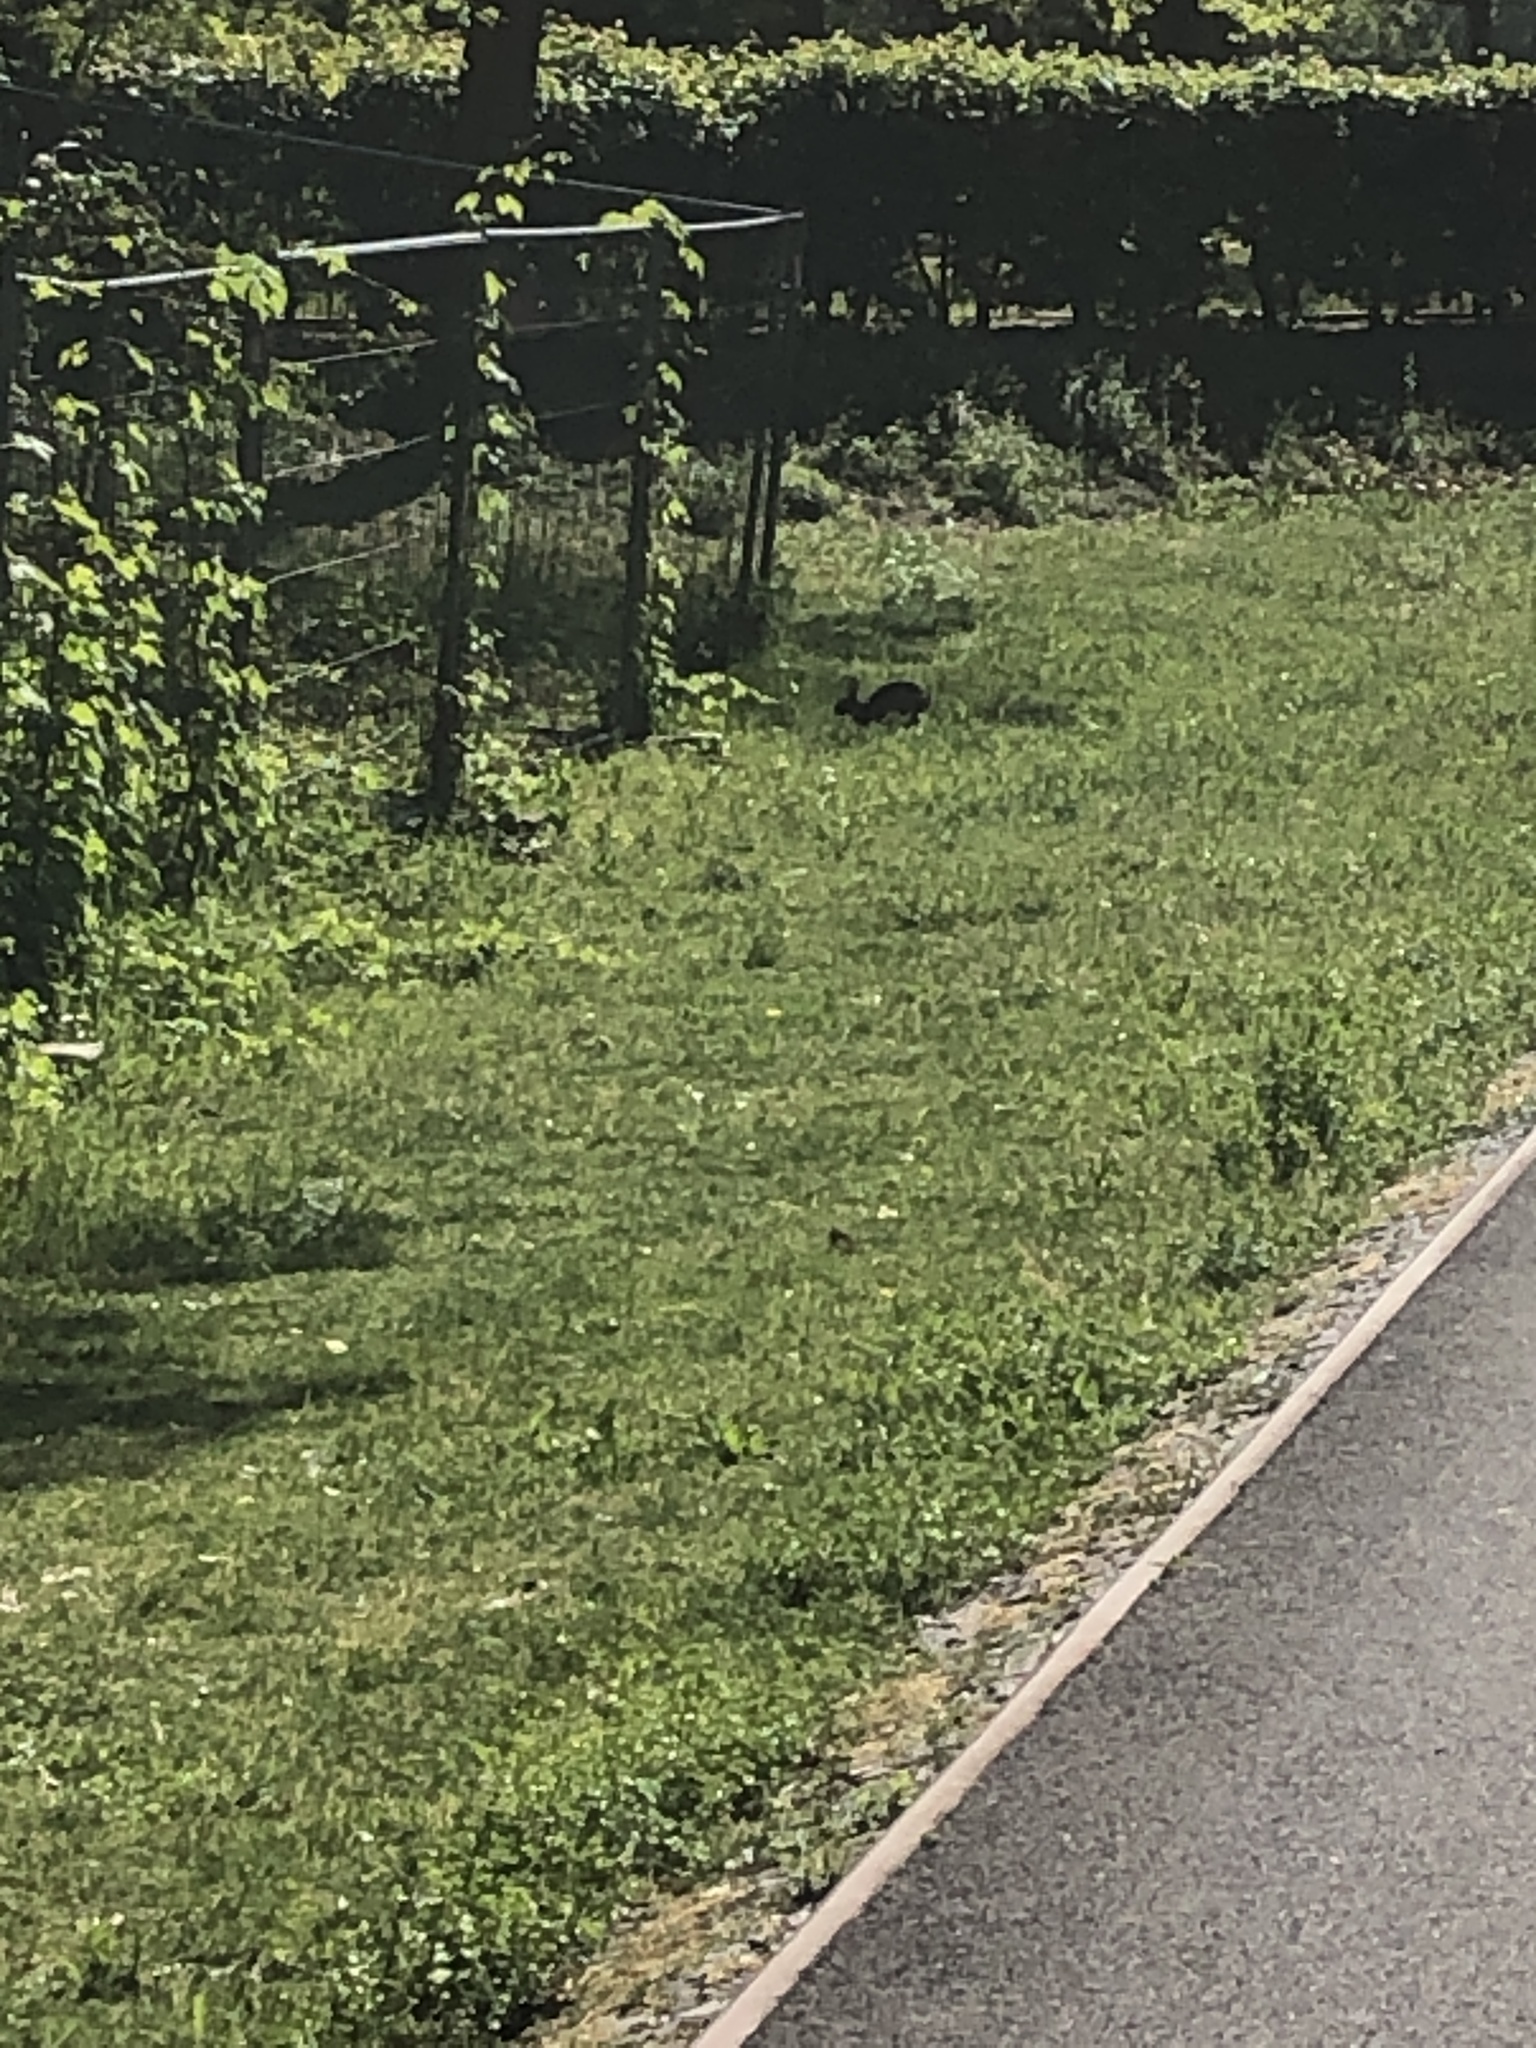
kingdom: Animalia
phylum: Chordata
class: Mammalia
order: Lagomorpha
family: Leporidae
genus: Oryctolagus
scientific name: Oryctolagus cuniculus
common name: European rabbit
